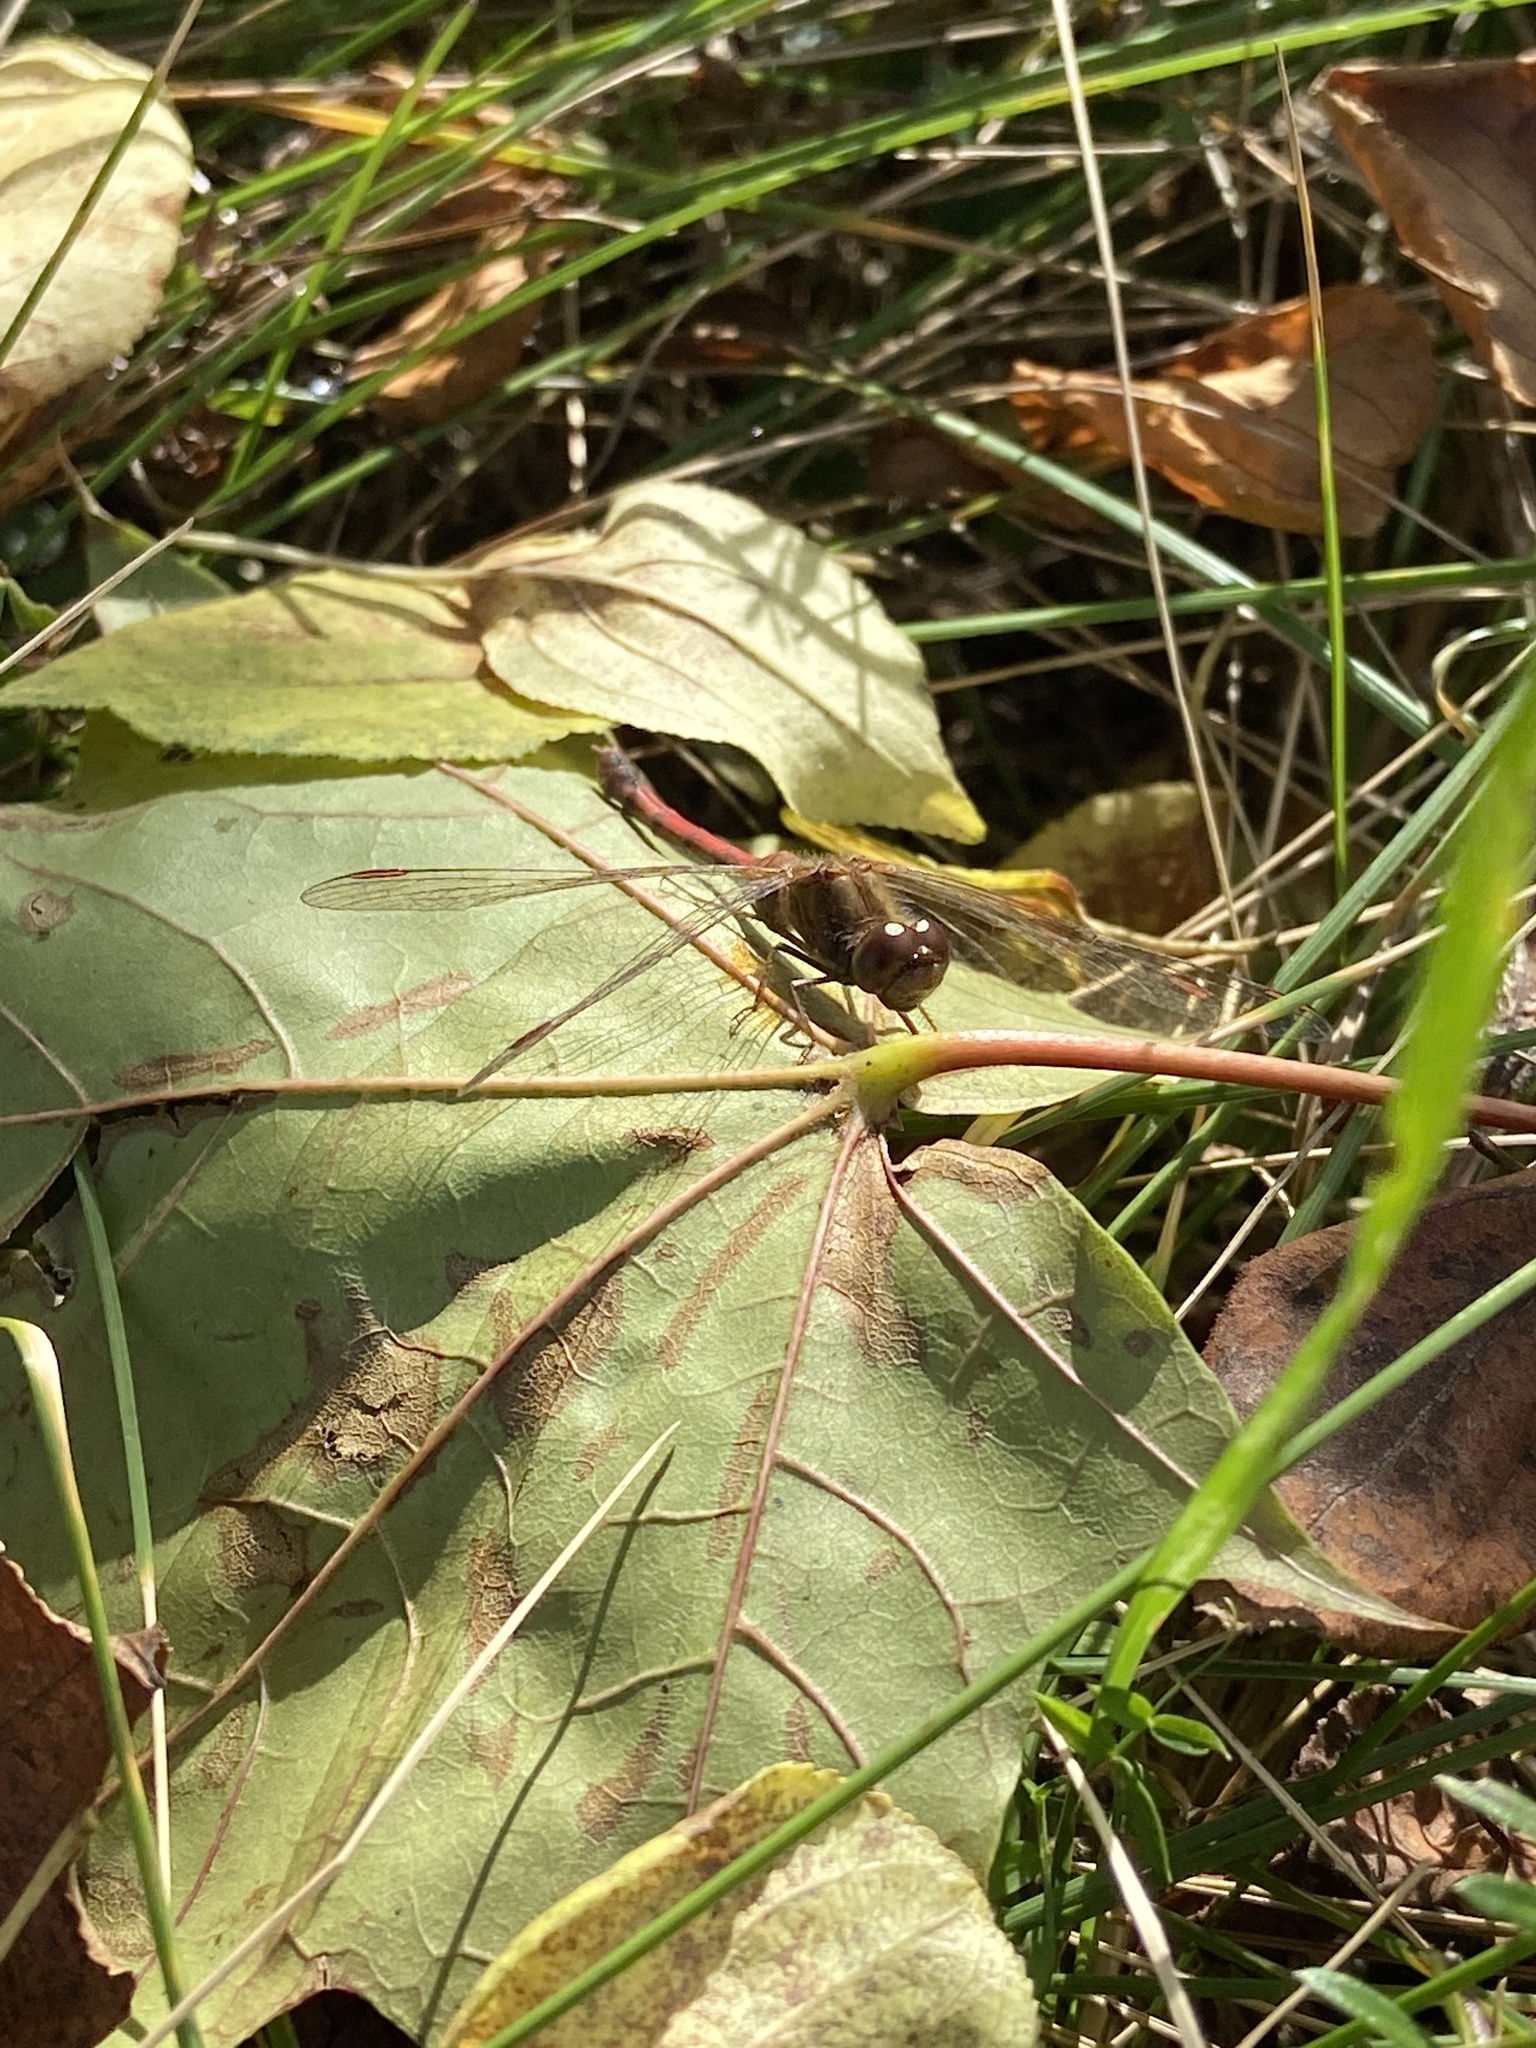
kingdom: Animalia
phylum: Arthropoda
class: Insecta
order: Odonata
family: Libellulidae
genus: Sympetrum
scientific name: Sympetrum vicinum
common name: Autumn meadowhawk
